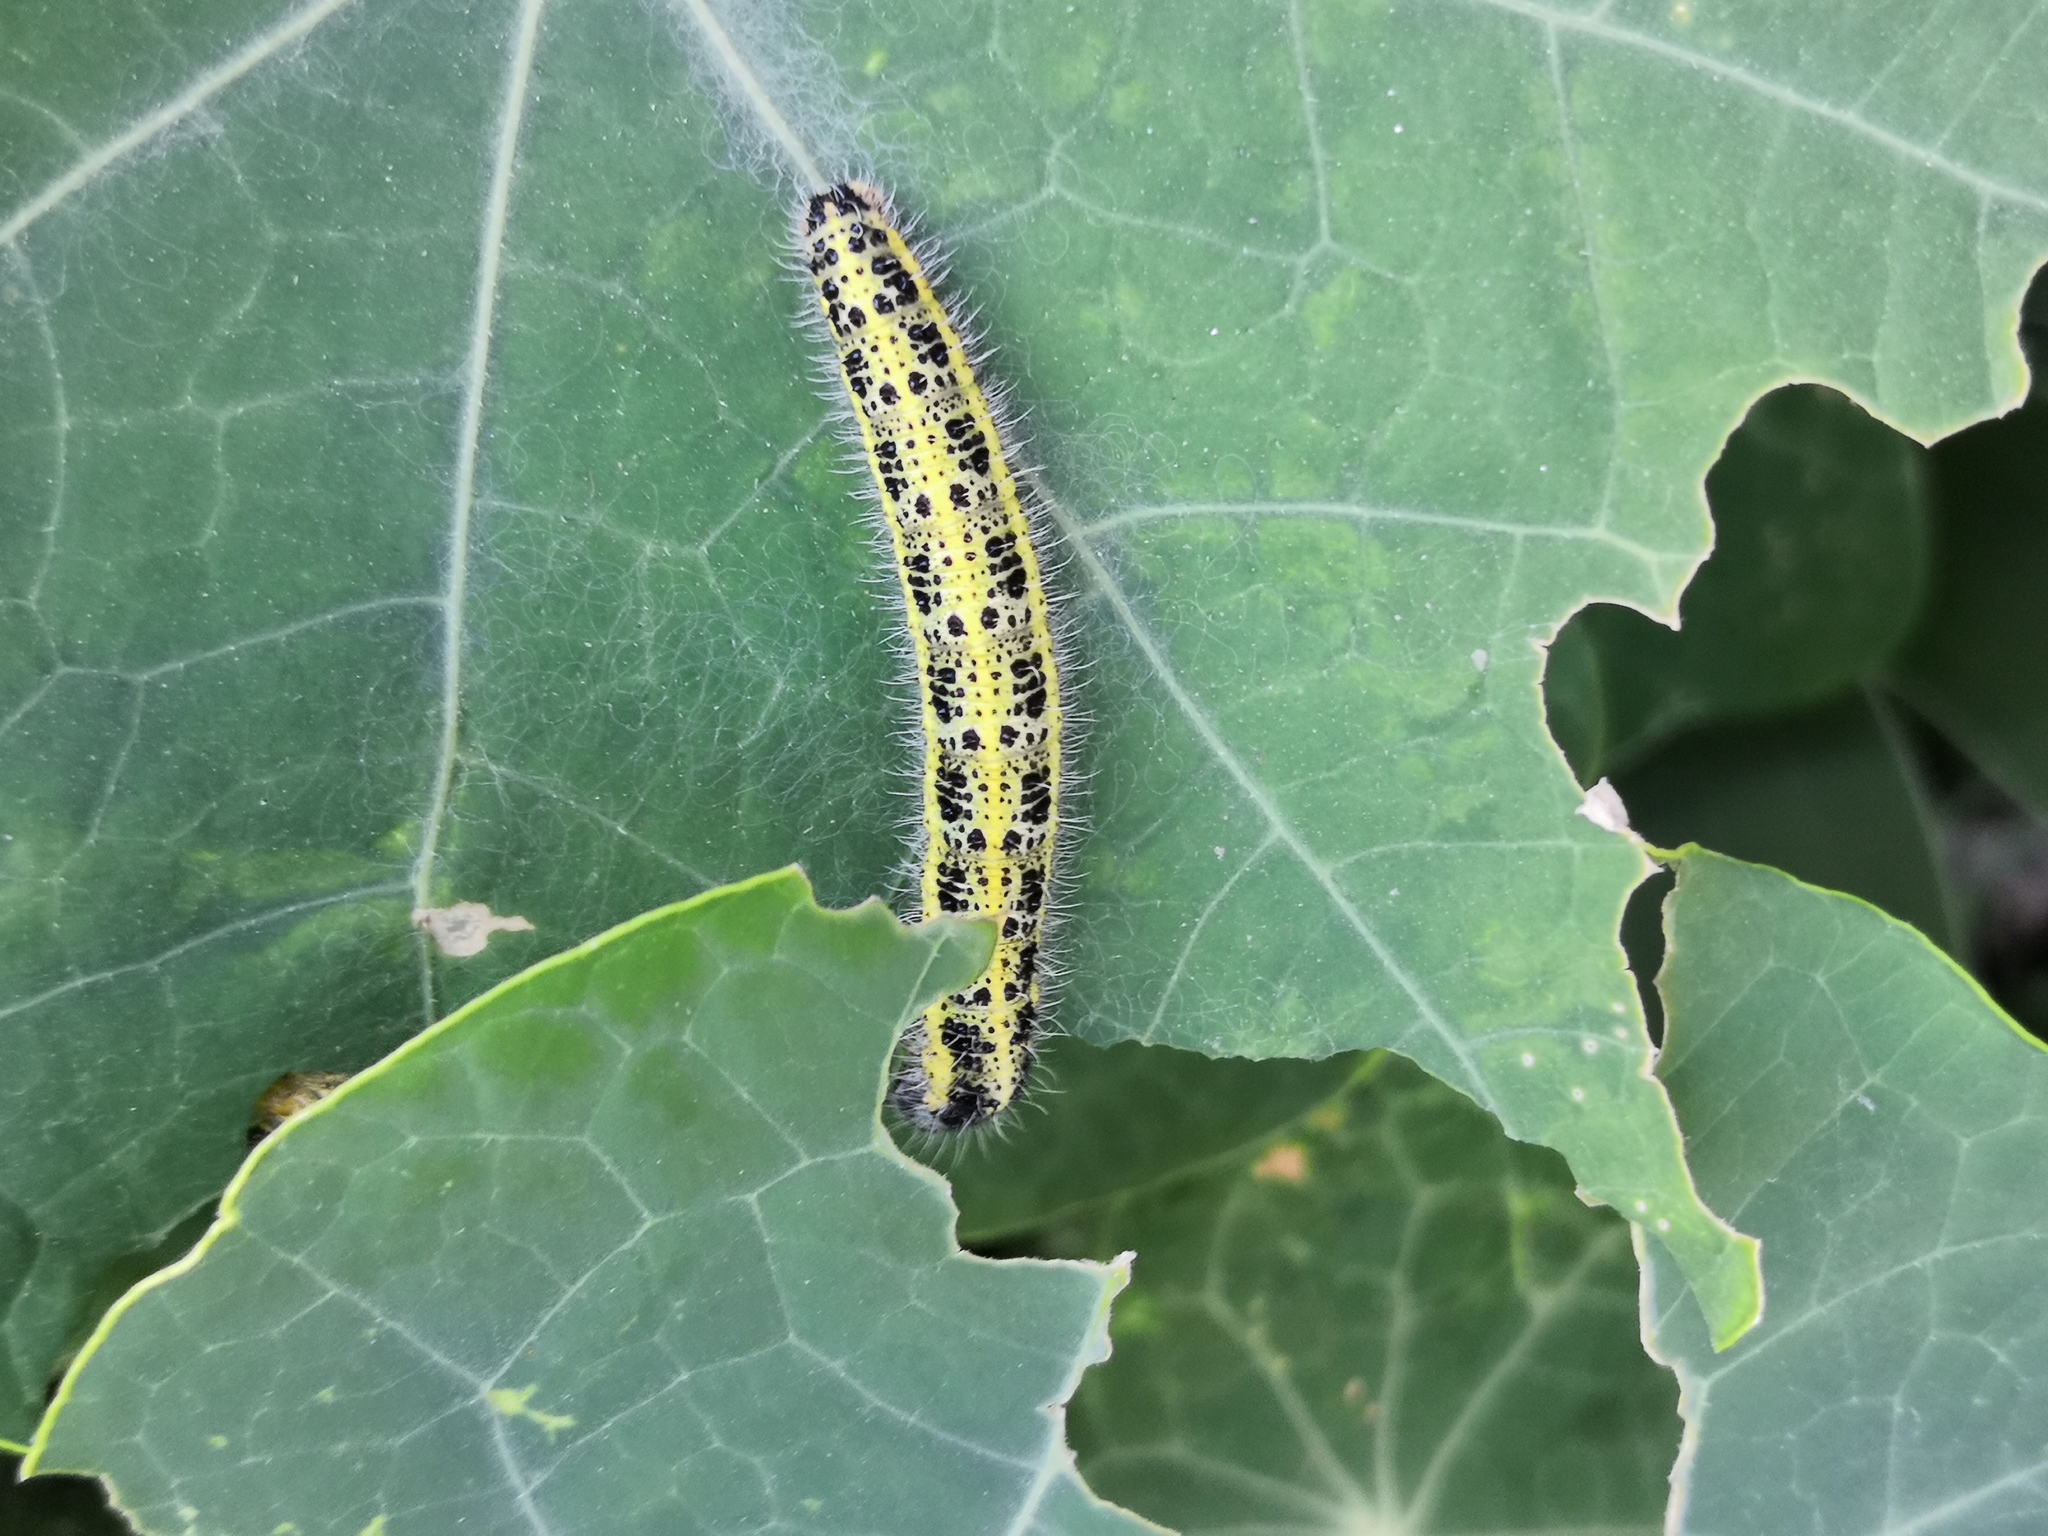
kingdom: Animalia
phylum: Arthropoda
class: Insecta
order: Lepidoptera
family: Pieridae
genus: Pieris
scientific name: Pieris brassicae
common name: Large white
